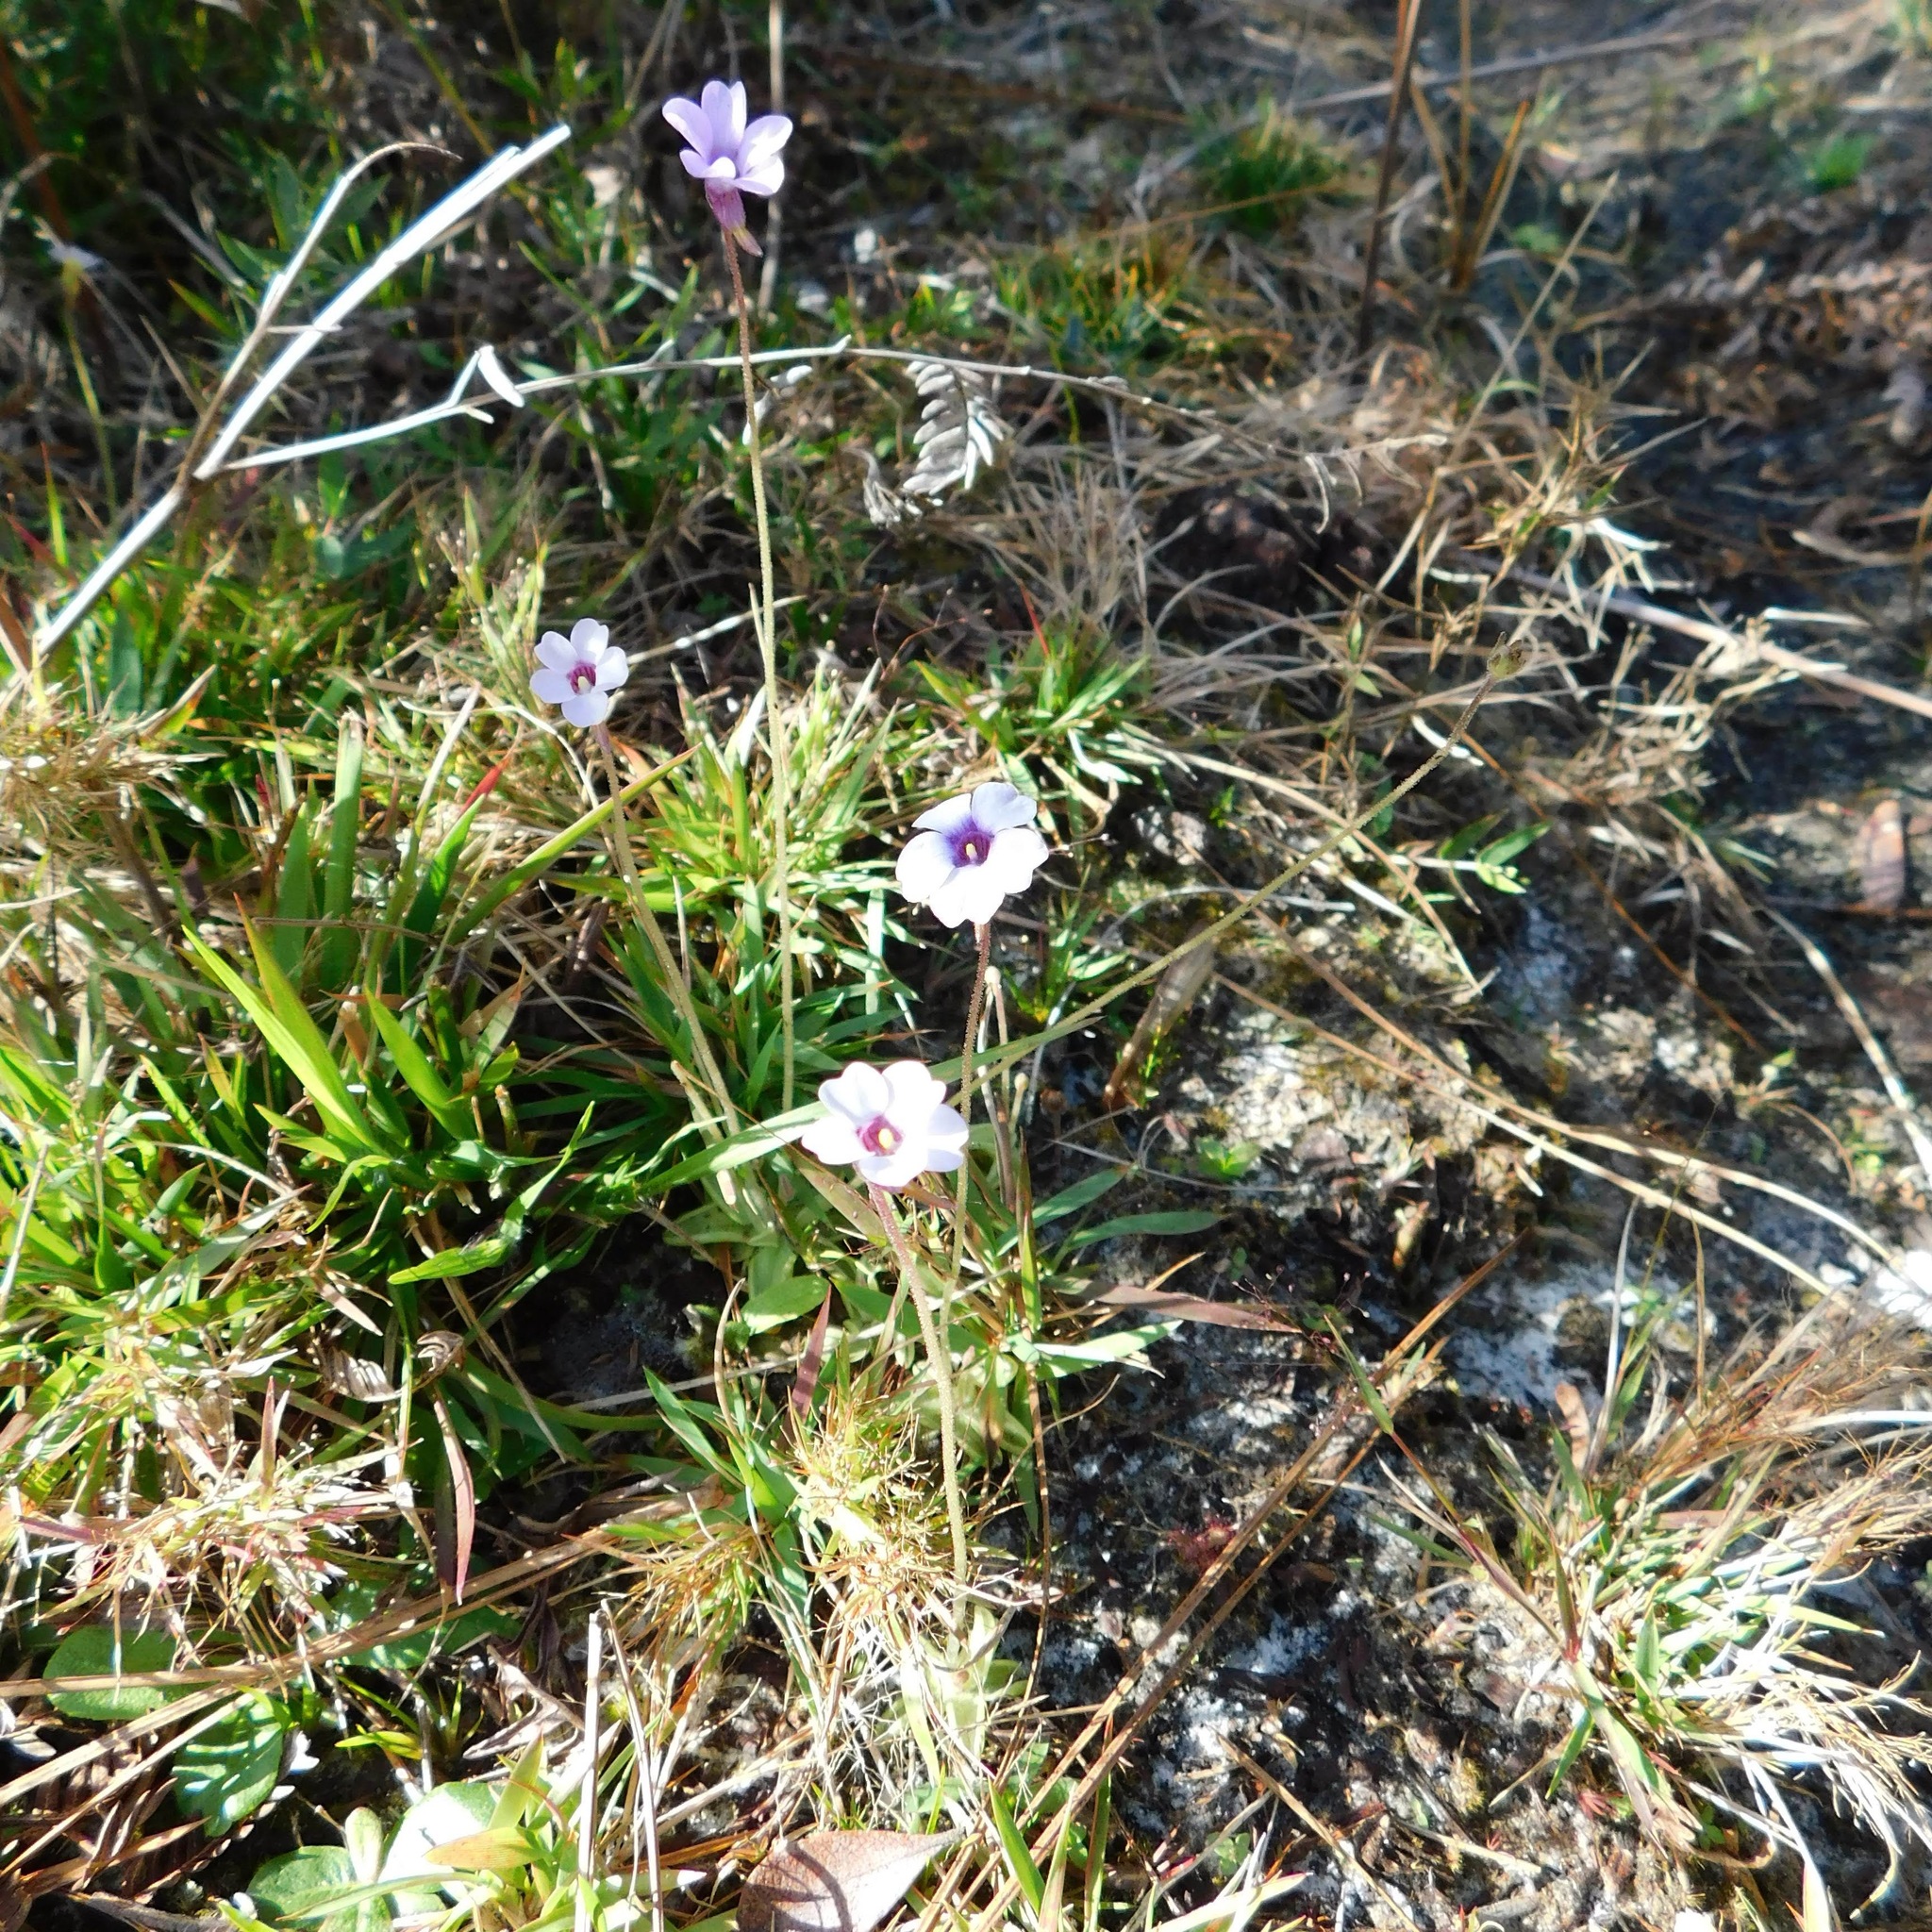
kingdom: Plantae
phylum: Tracheophyta
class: Magnoliopsida
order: Lamiales
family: Lentibulariaceae
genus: Pinguicula
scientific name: Pinguicula pumila
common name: Small butterwort
